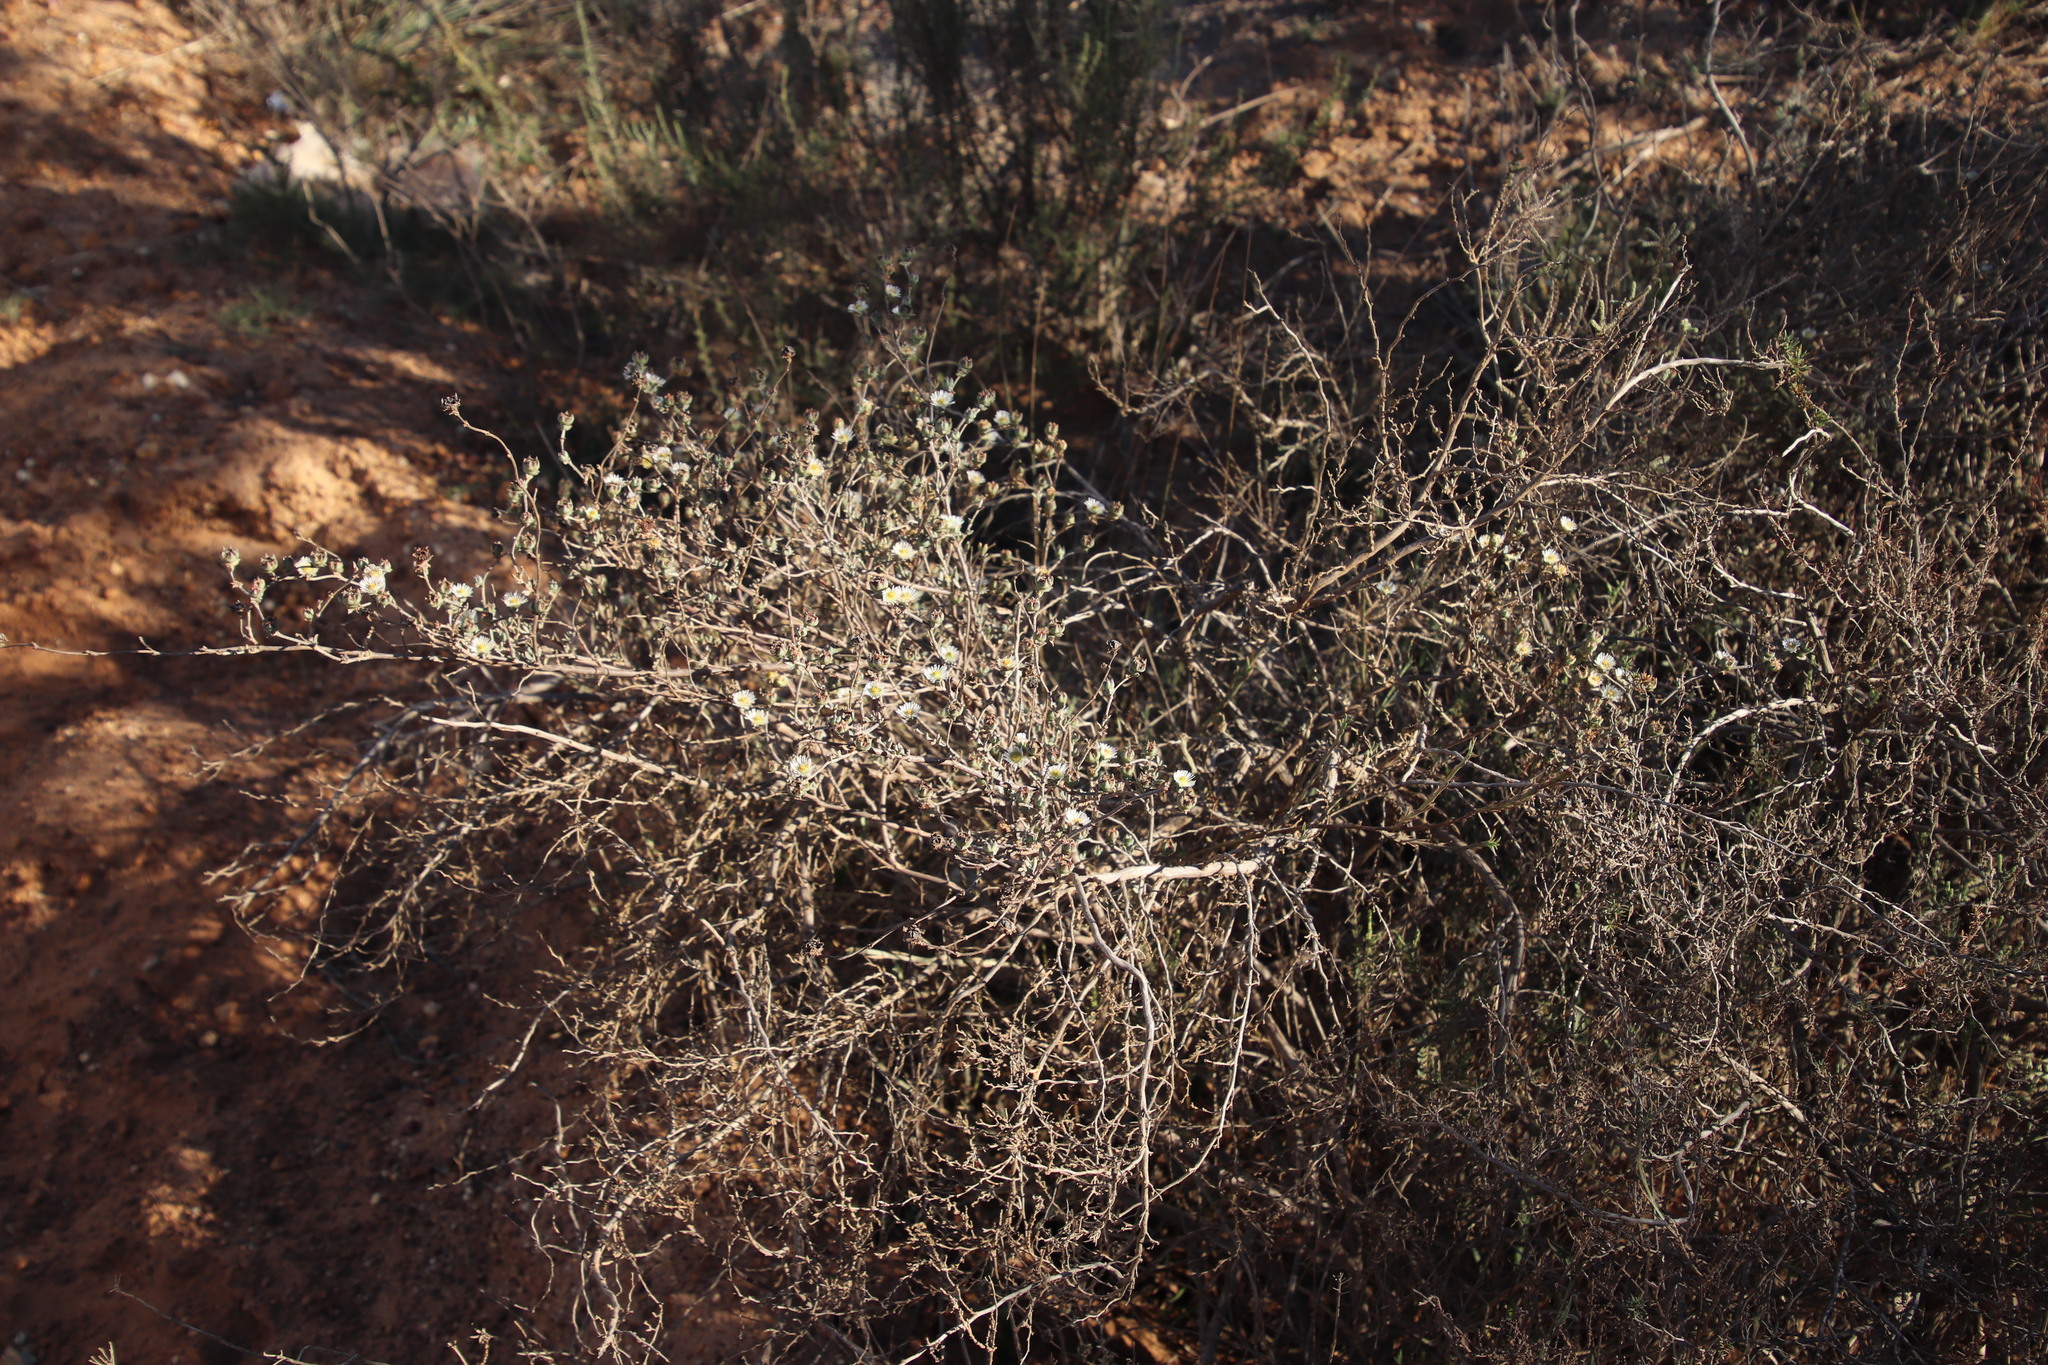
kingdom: Plantae
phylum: Tracheophyta
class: Magnoliopsida
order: Caryophyllales
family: Aizoaceae
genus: Erepsia
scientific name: Erepsia hallii
